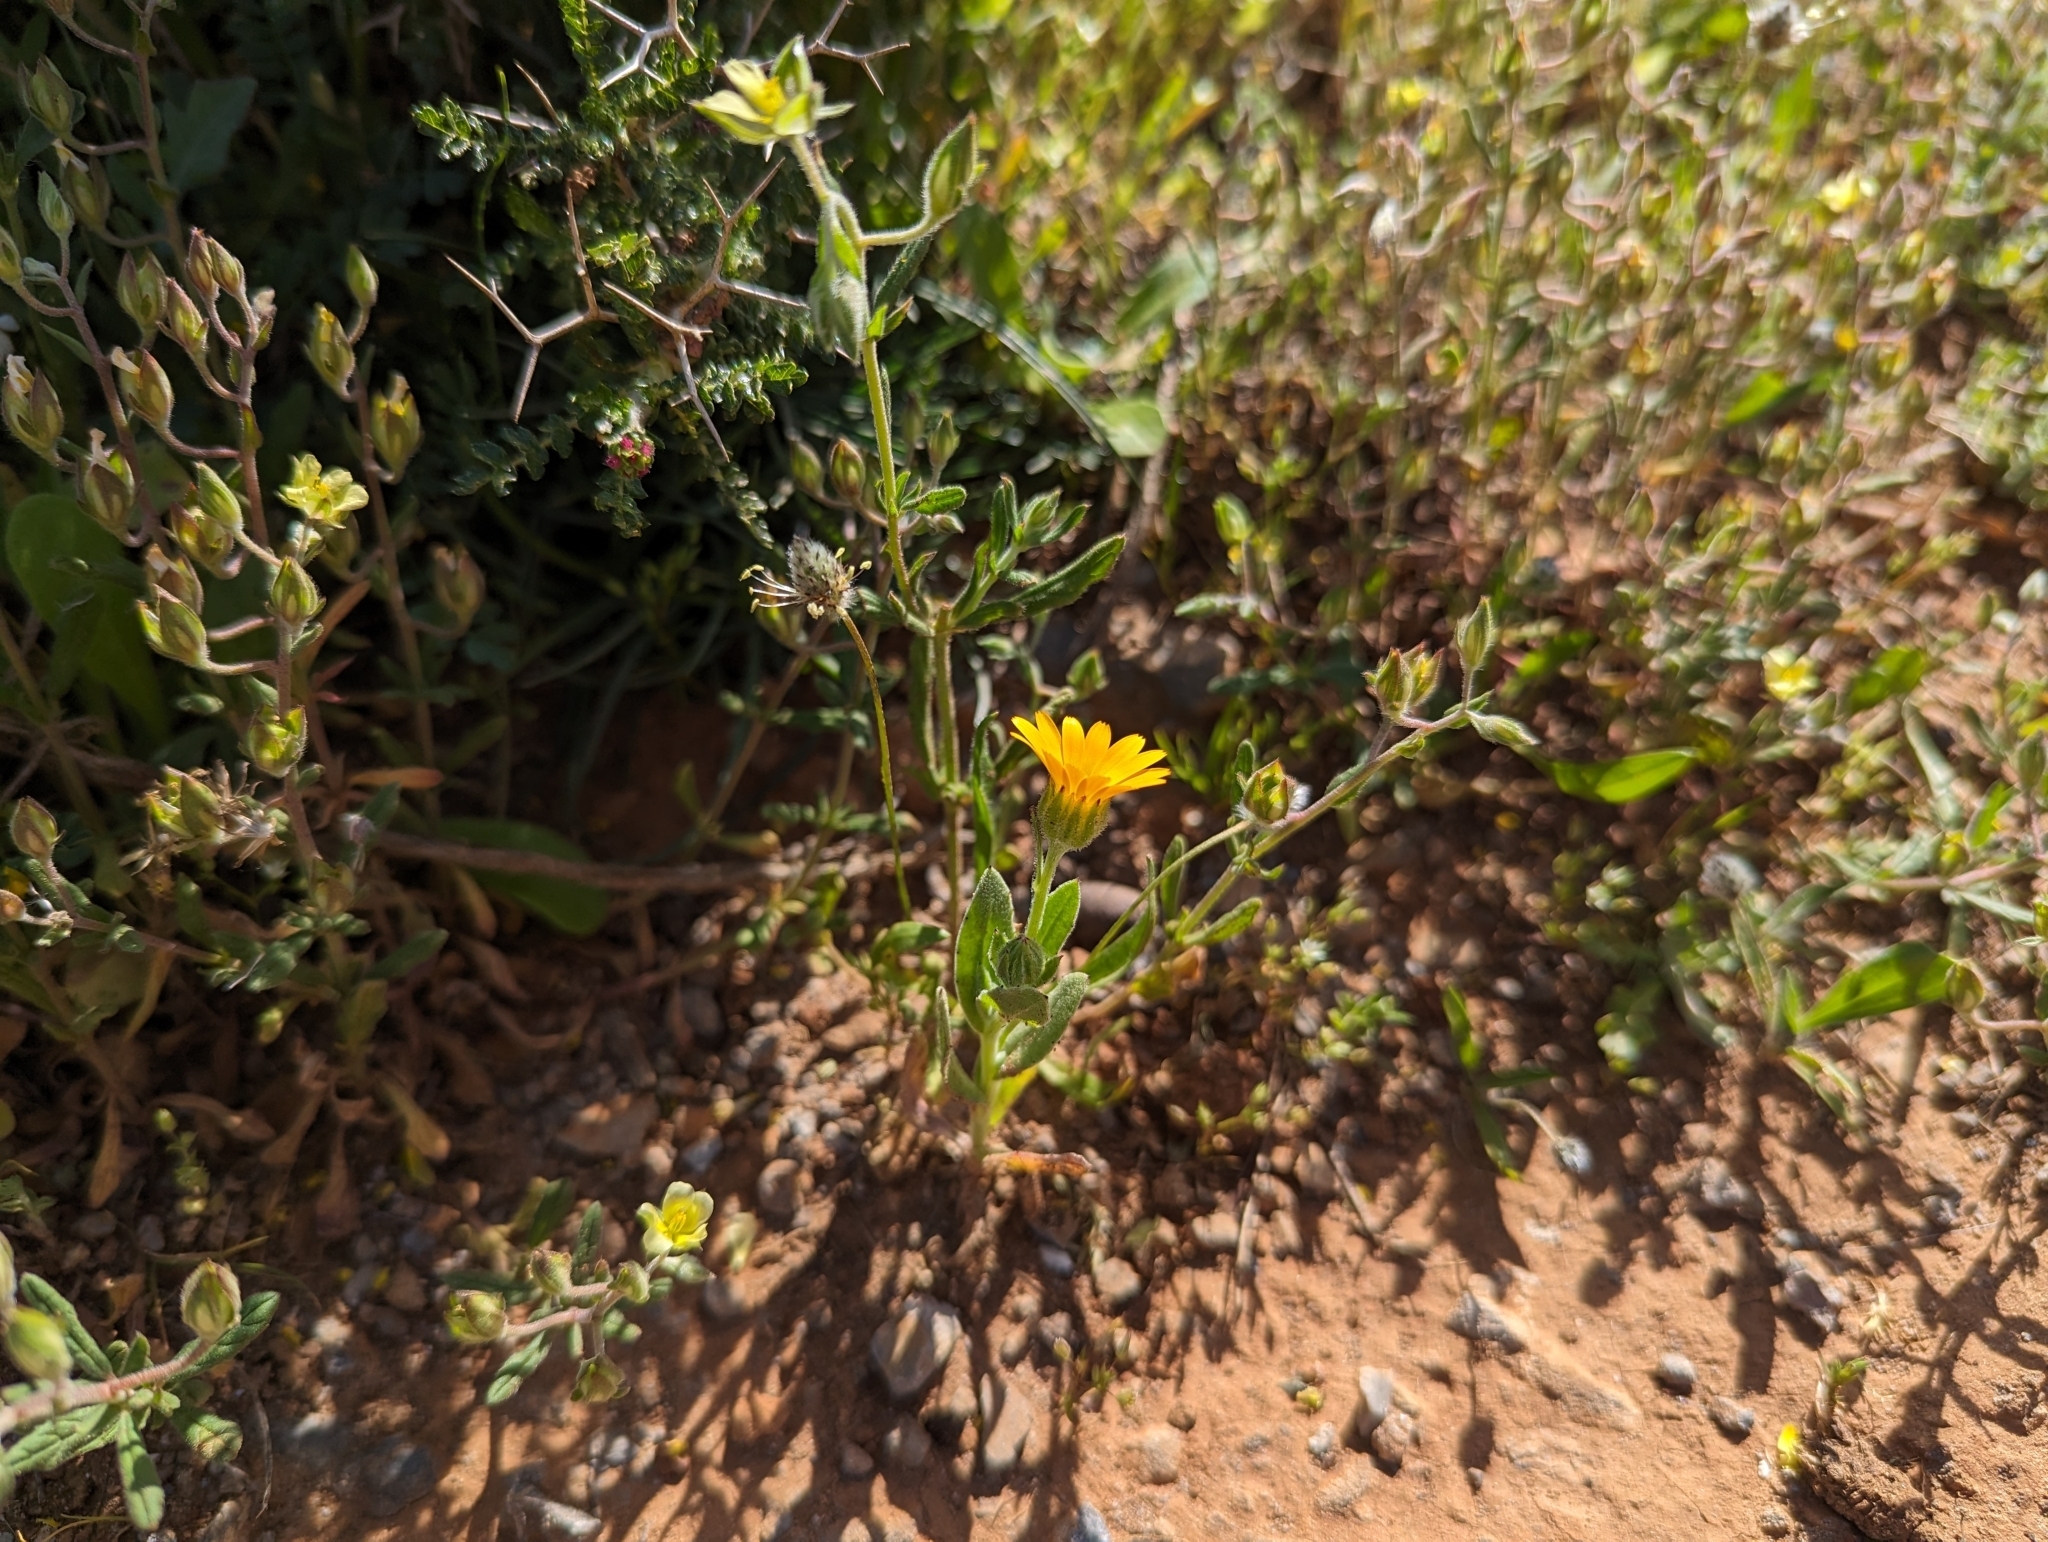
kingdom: Plantae
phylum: Tracheophyta
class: Magnoliopsida
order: Asterales
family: Asteraceae
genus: Calendula
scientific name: Calendula arvensis
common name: Field marigold
